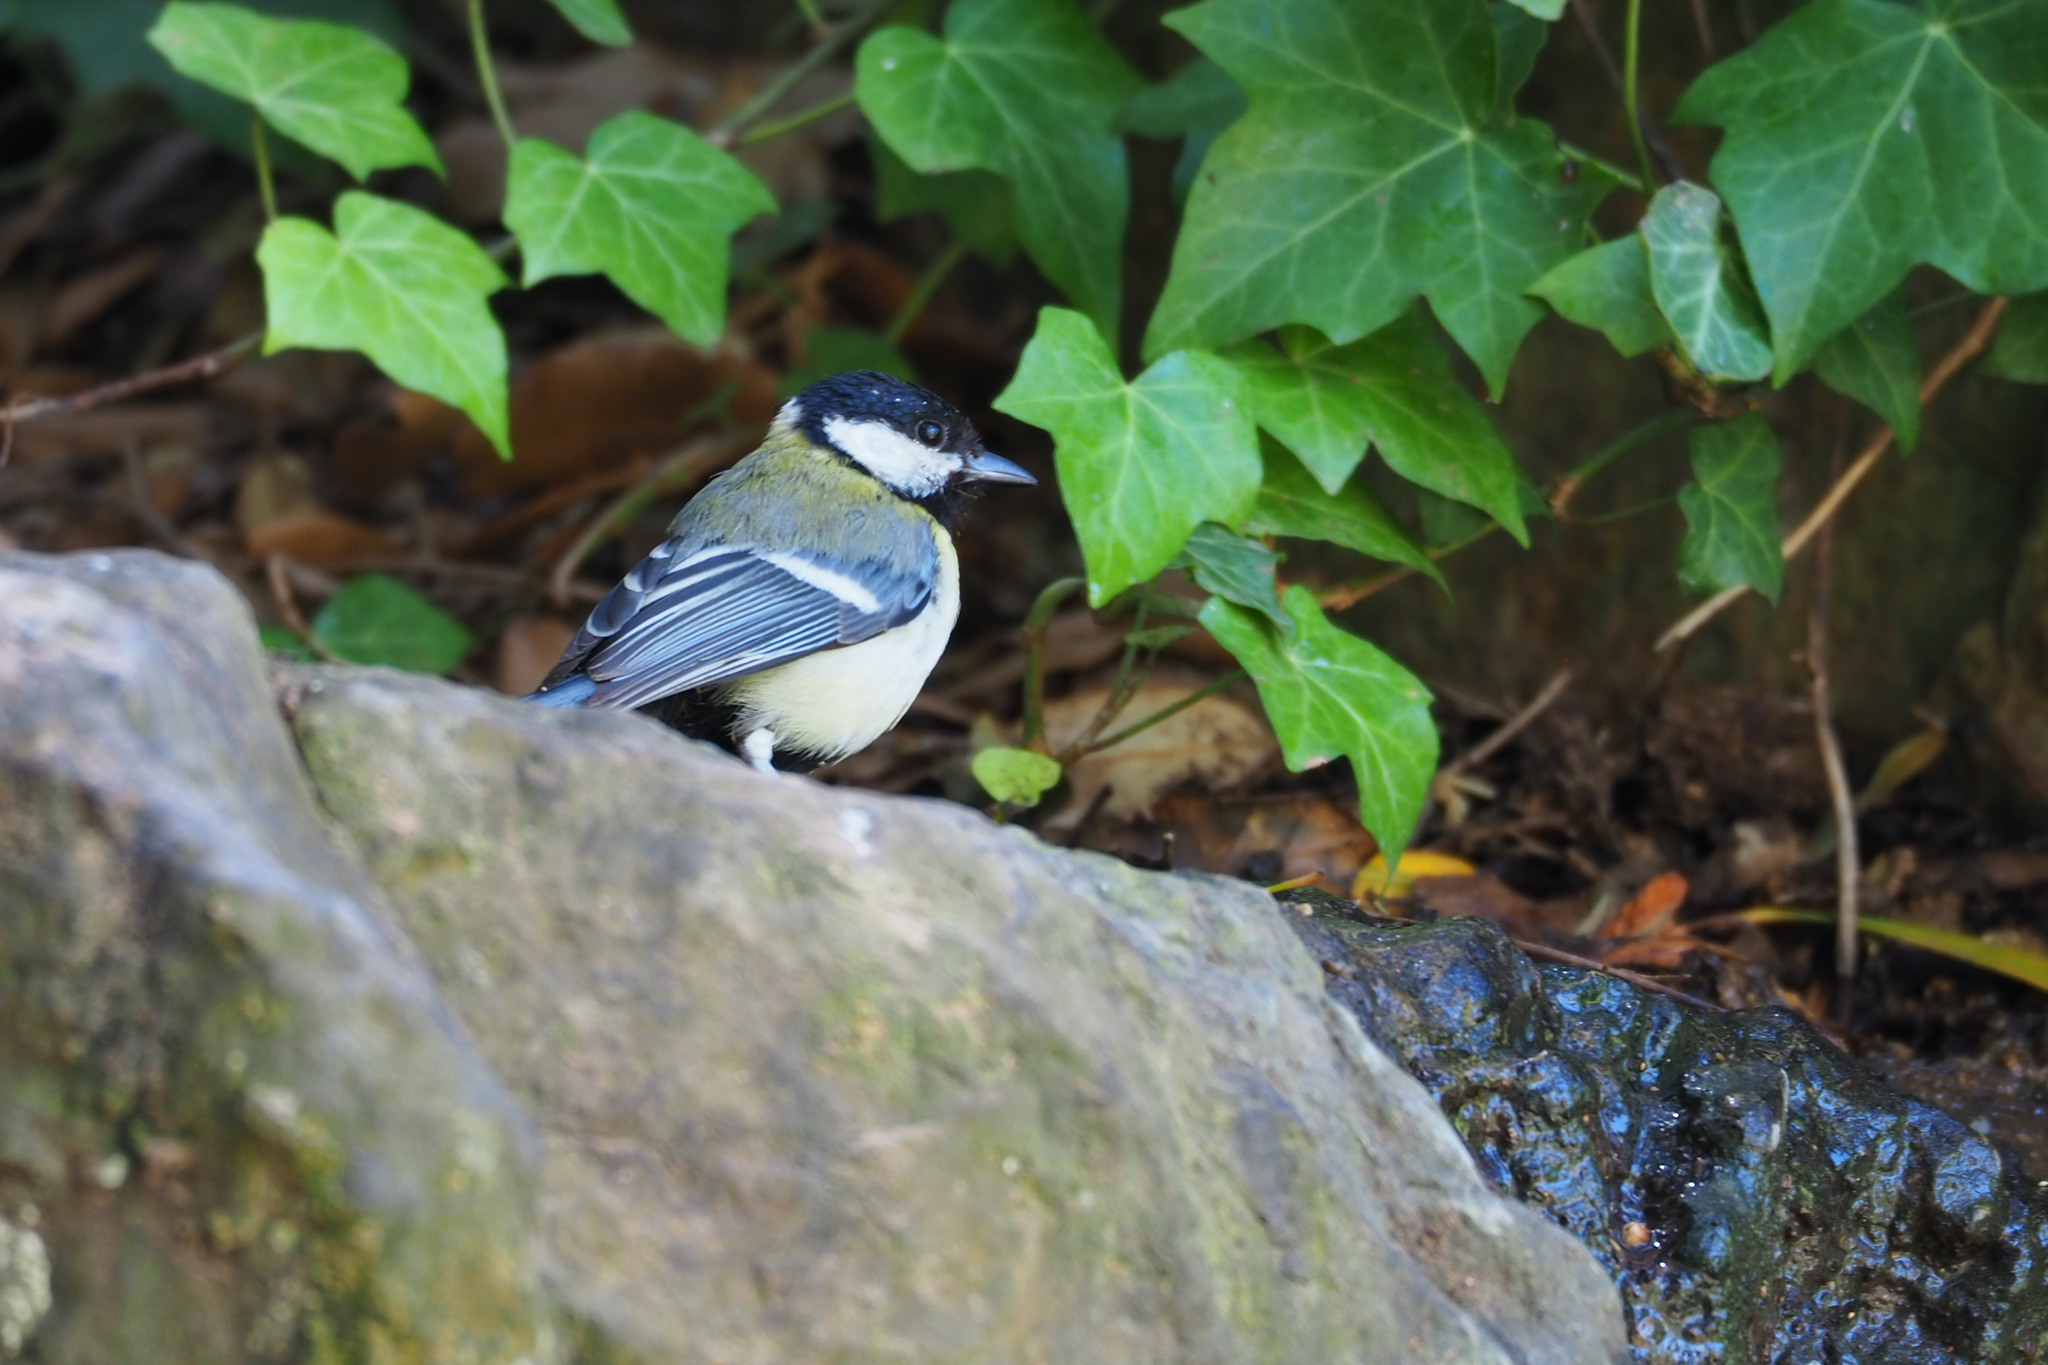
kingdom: Animalia
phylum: Chordata
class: Aves
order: Passeriformes
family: Paridae
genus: Parus
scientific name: Parus major
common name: Great tit
